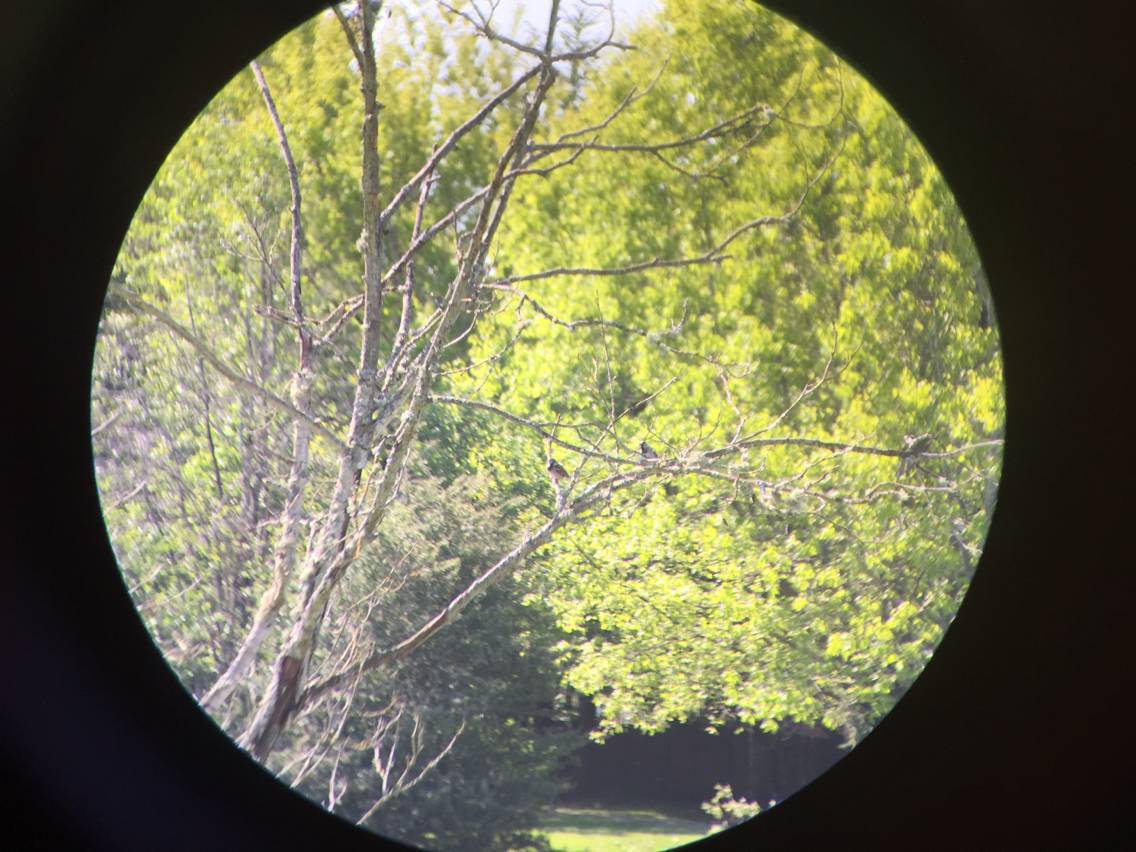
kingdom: Animalia
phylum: Chordata
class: Aves
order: Passeriformes
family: Passeridae
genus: Passer
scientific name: Passer domesticus
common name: House sparrow
